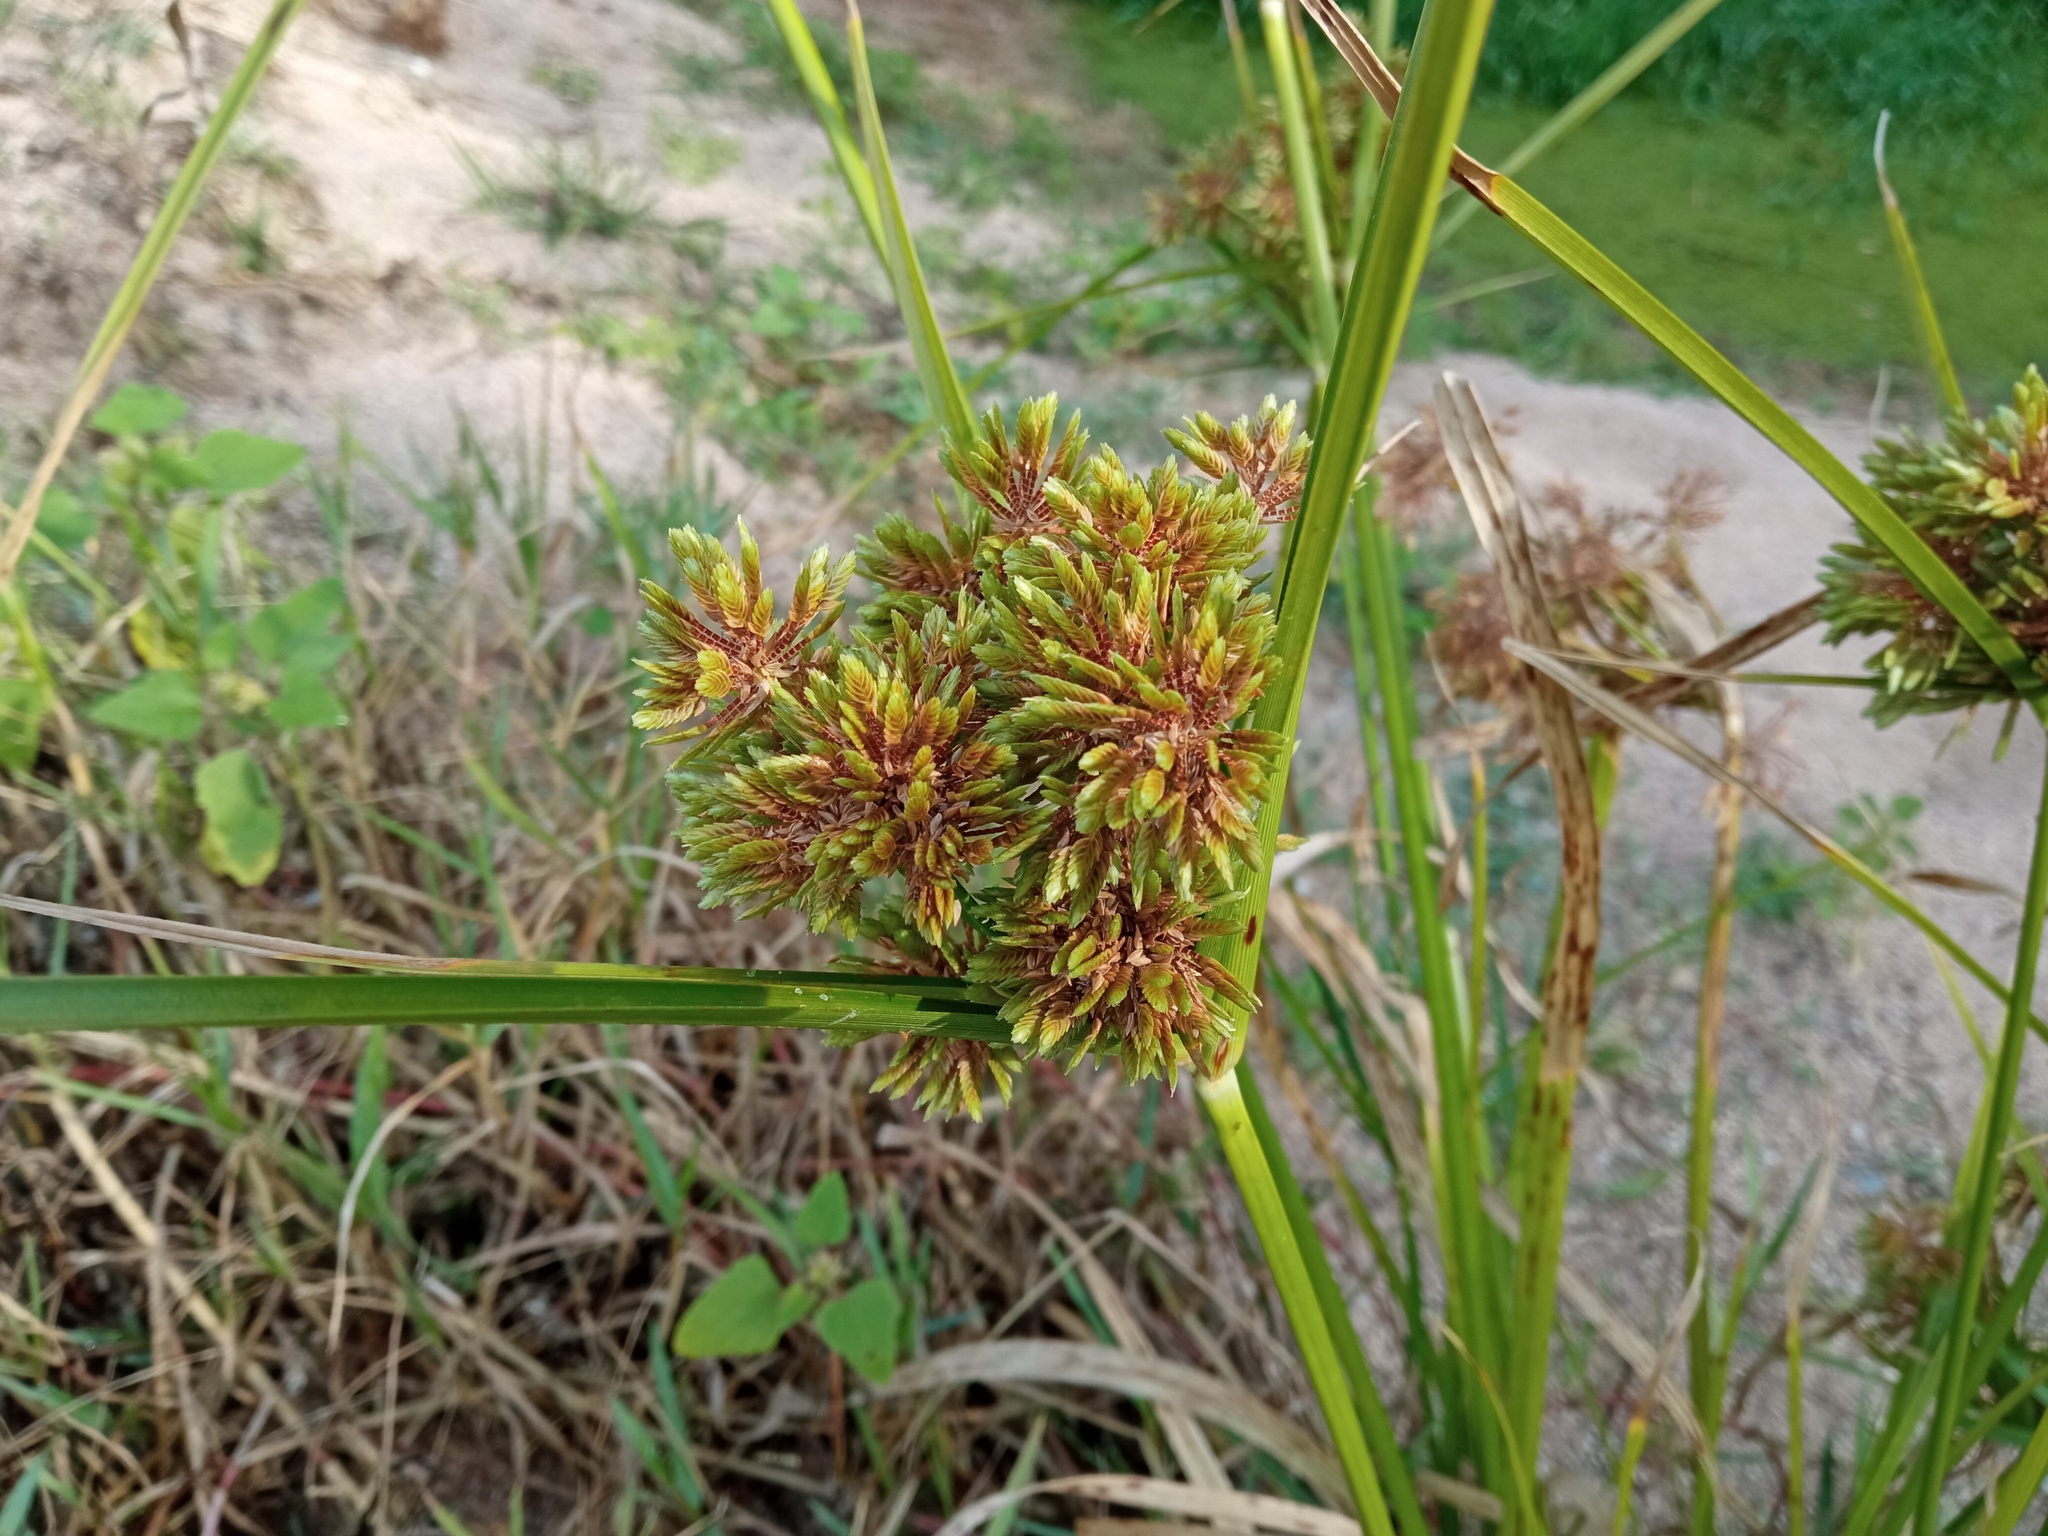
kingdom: Plantae
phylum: Tracheophyta
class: Liliopsida
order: Poales
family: Cyperaceae
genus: Cyperus
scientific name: Cyperus eragrostis
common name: Tall flatsedge
